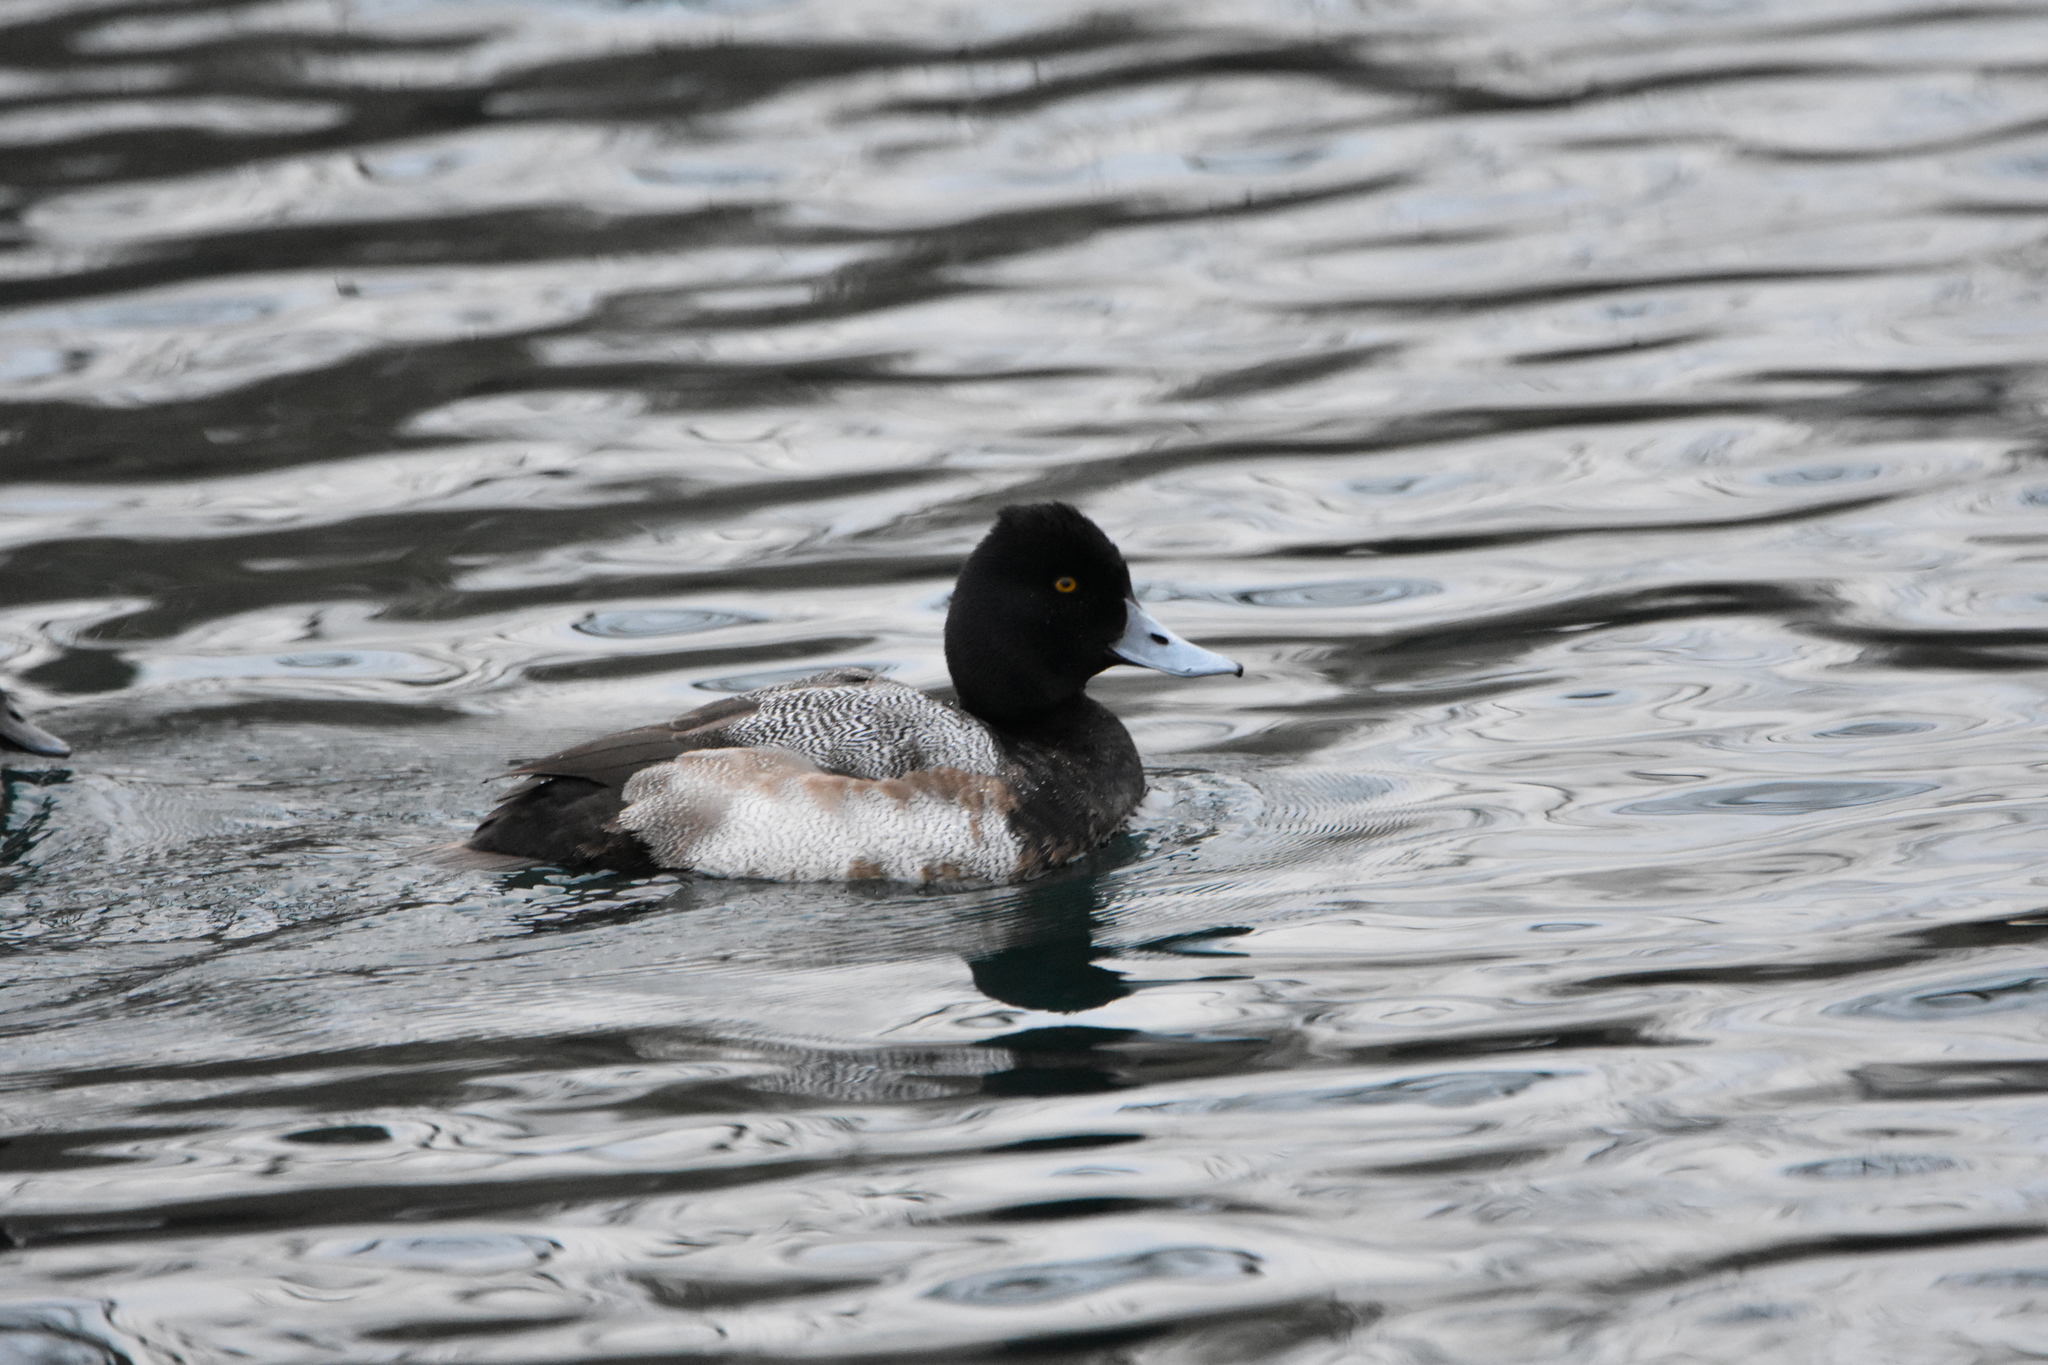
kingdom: Animalia
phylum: Chordata
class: Aves
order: Anseriformes
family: Anatidae
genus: Aythya
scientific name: Aythya marila
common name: Greater scaup
